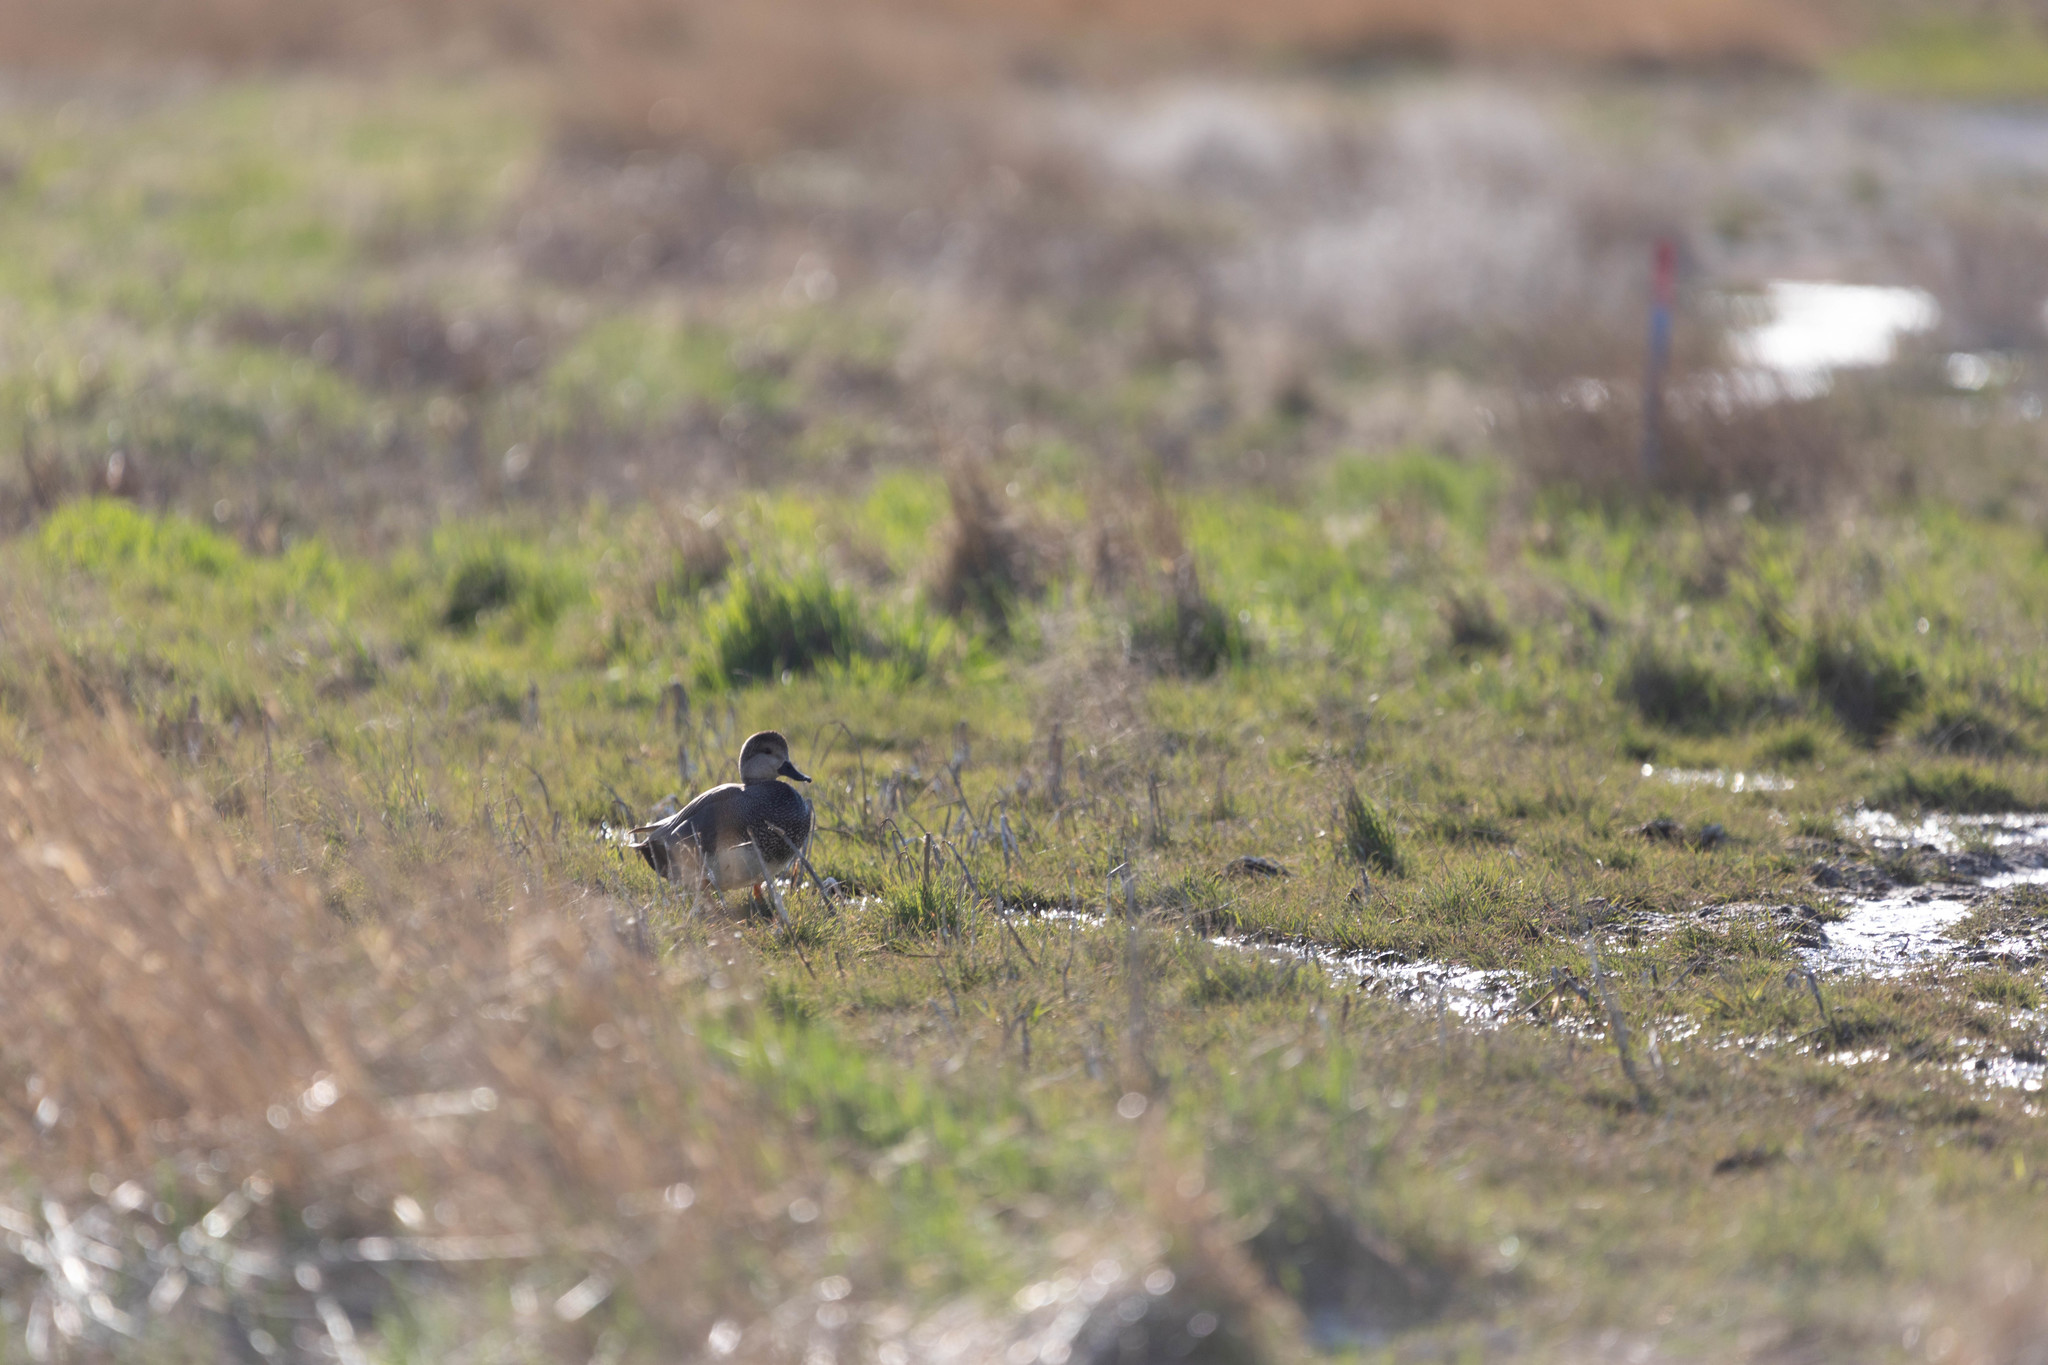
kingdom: Animalia
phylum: Chordata
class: Aves
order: Anseriformes
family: Anatidae
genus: Mareca
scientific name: Mareca strepera
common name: Gadwall
